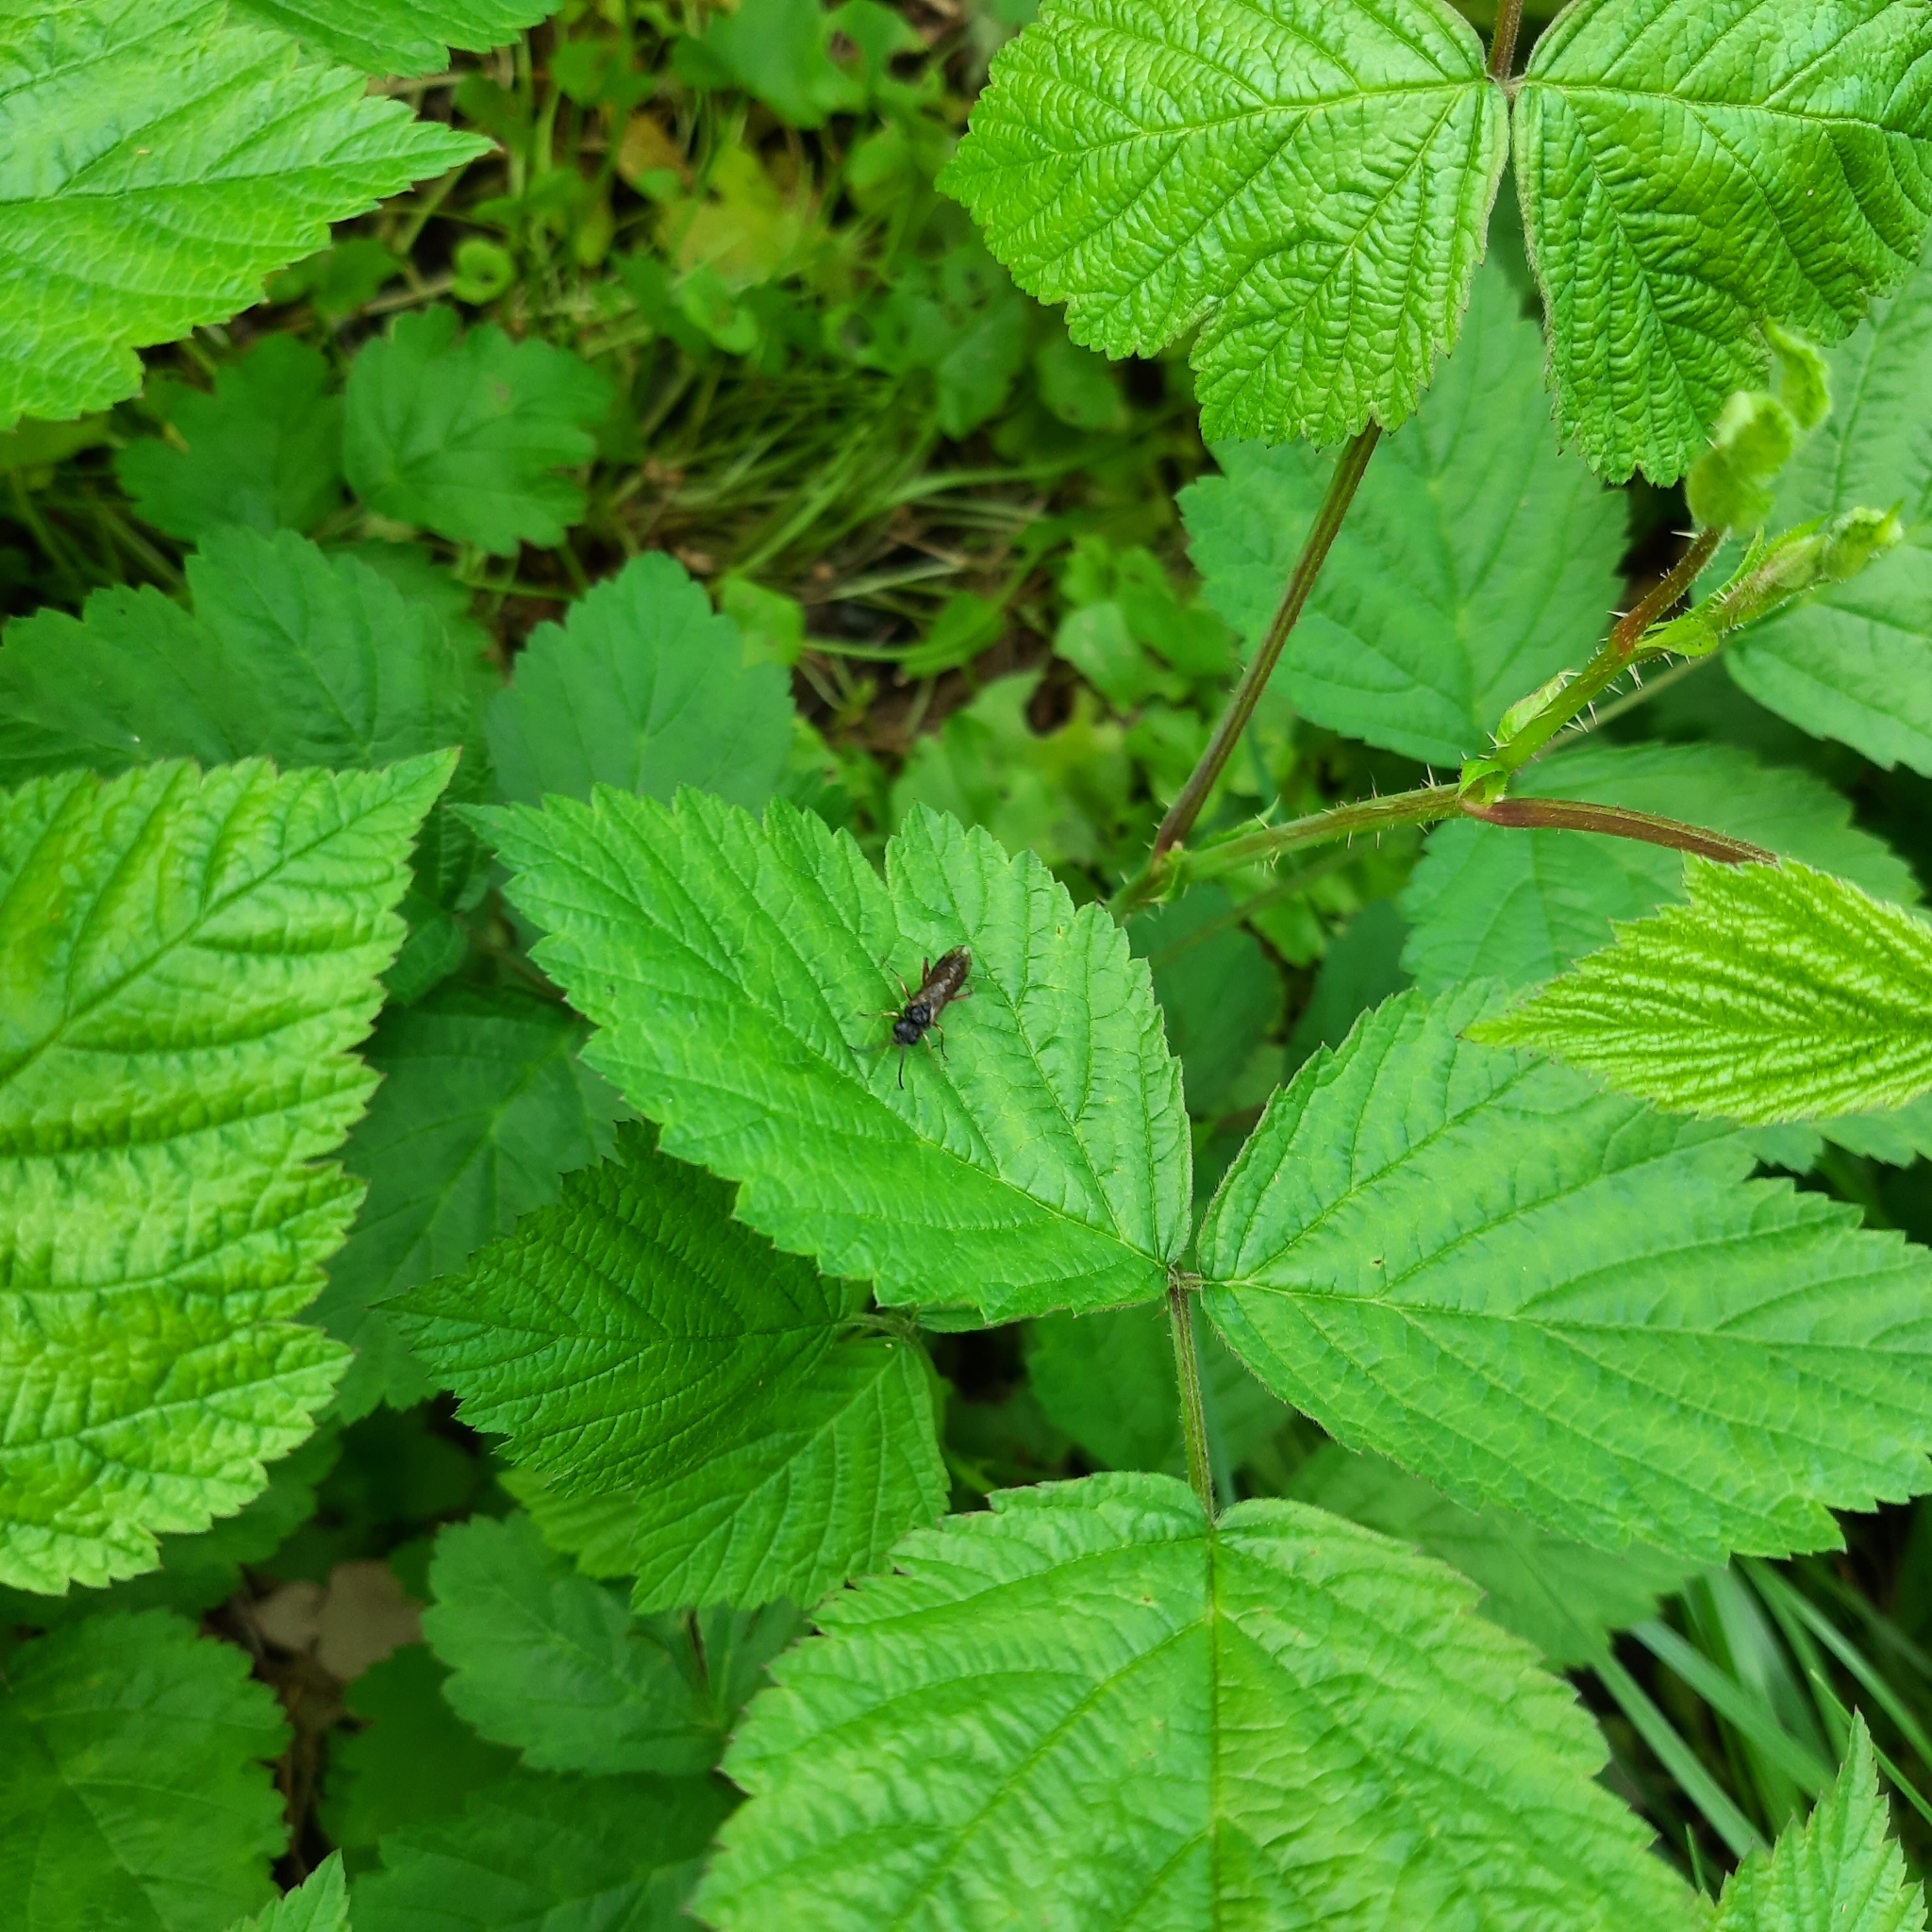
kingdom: Animalia
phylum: Arthropoda
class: Insecta
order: Hymenoptera
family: Tenthredinidae
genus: Taxonus
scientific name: Taxonus agrorum
